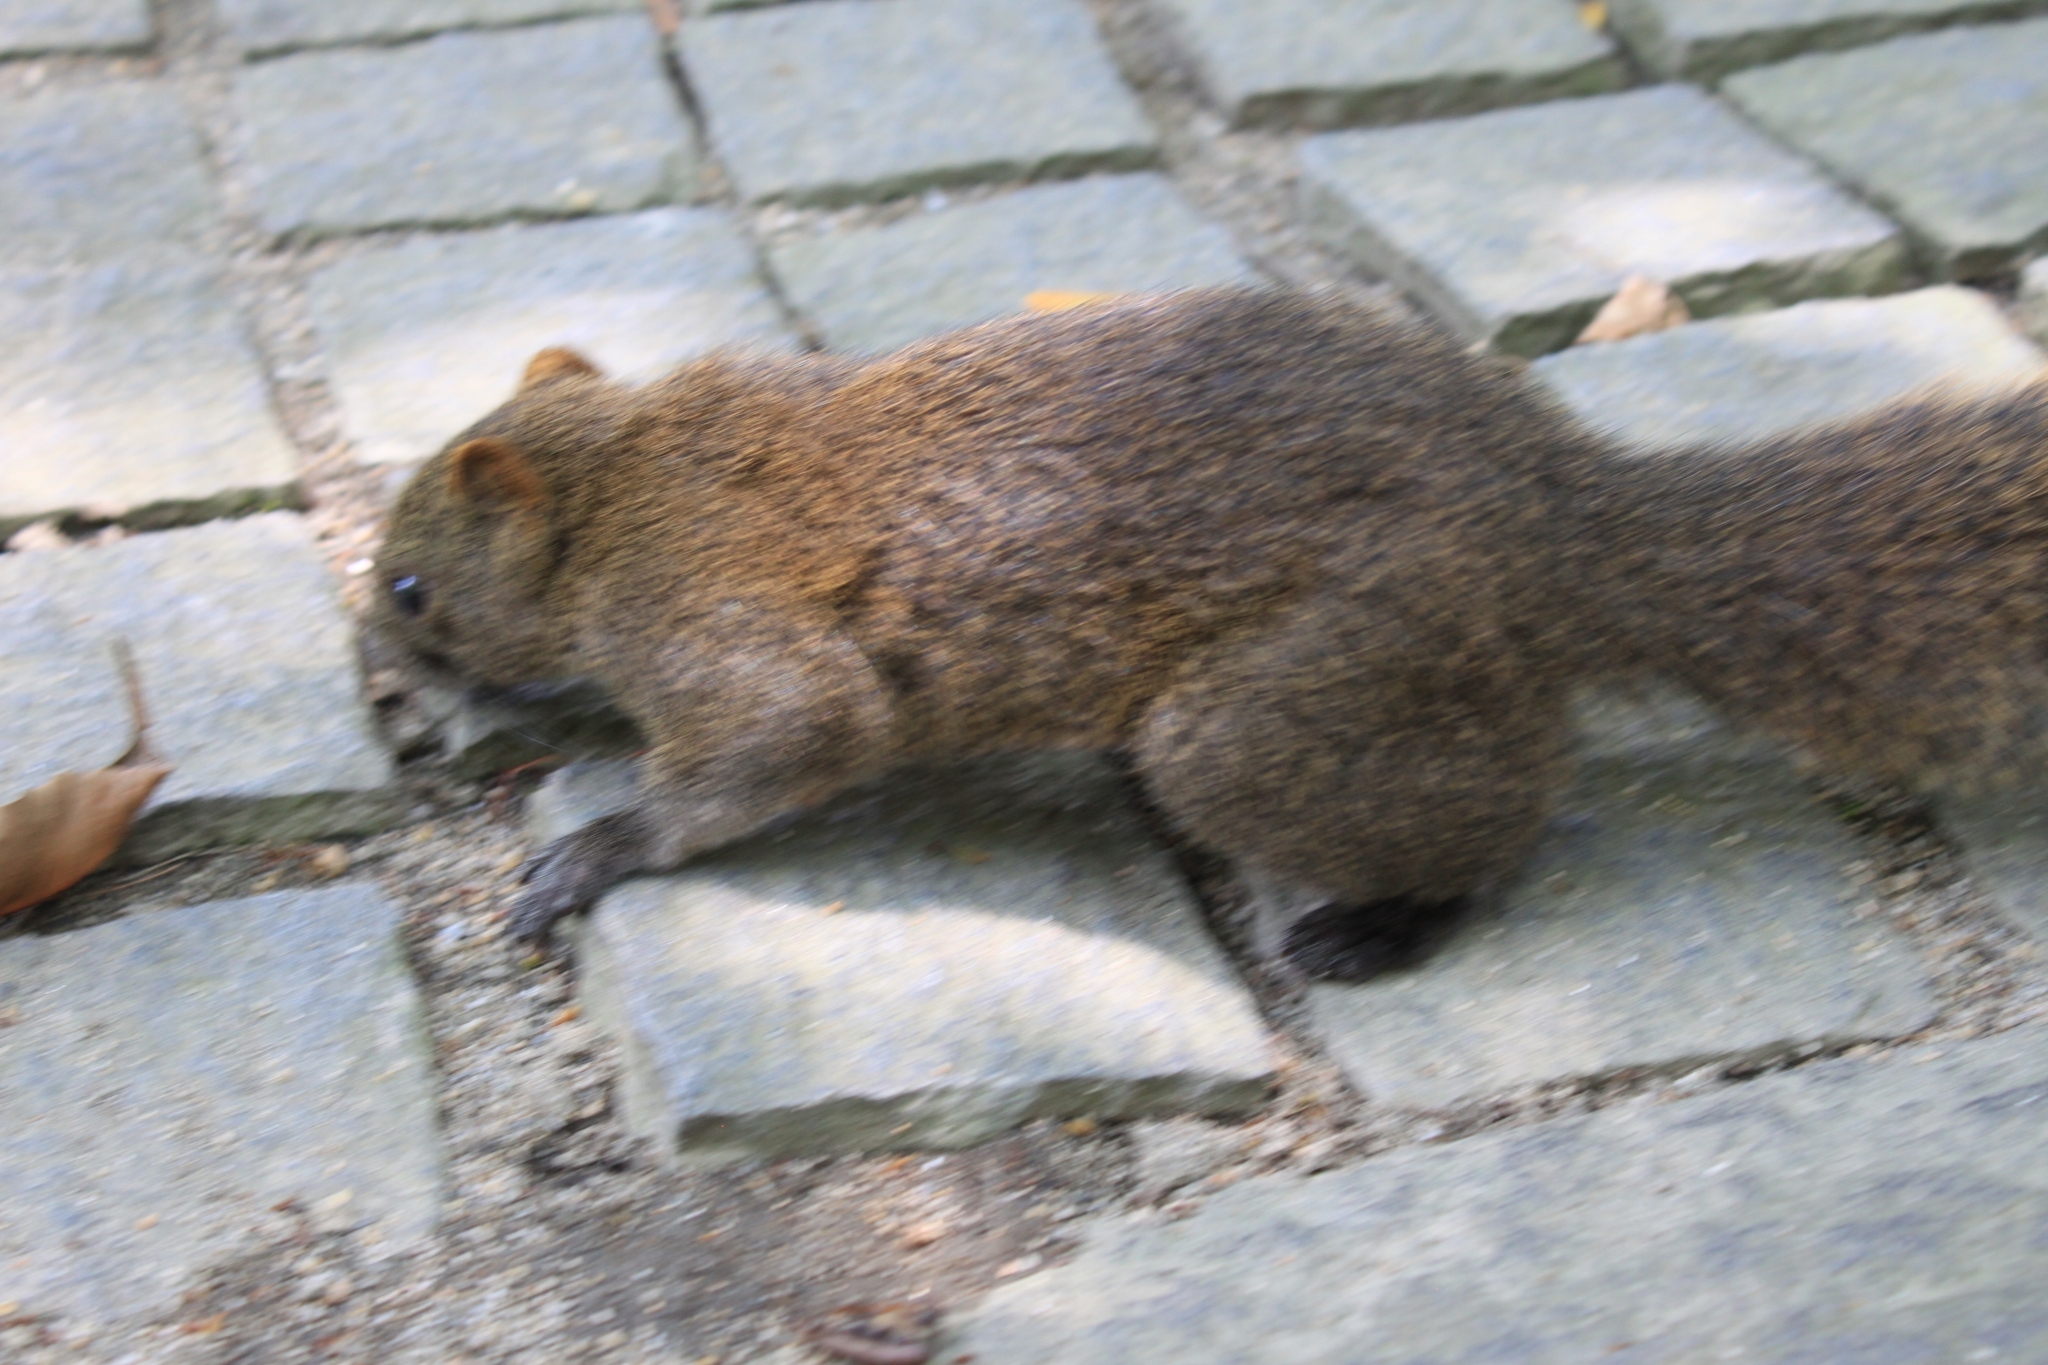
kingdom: Animalia
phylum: Chordata
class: Mammalia
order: Rodentia
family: Sciuridae
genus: Callosciurus
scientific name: Callosciurus erythraeus
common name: Pallas's squirrel
